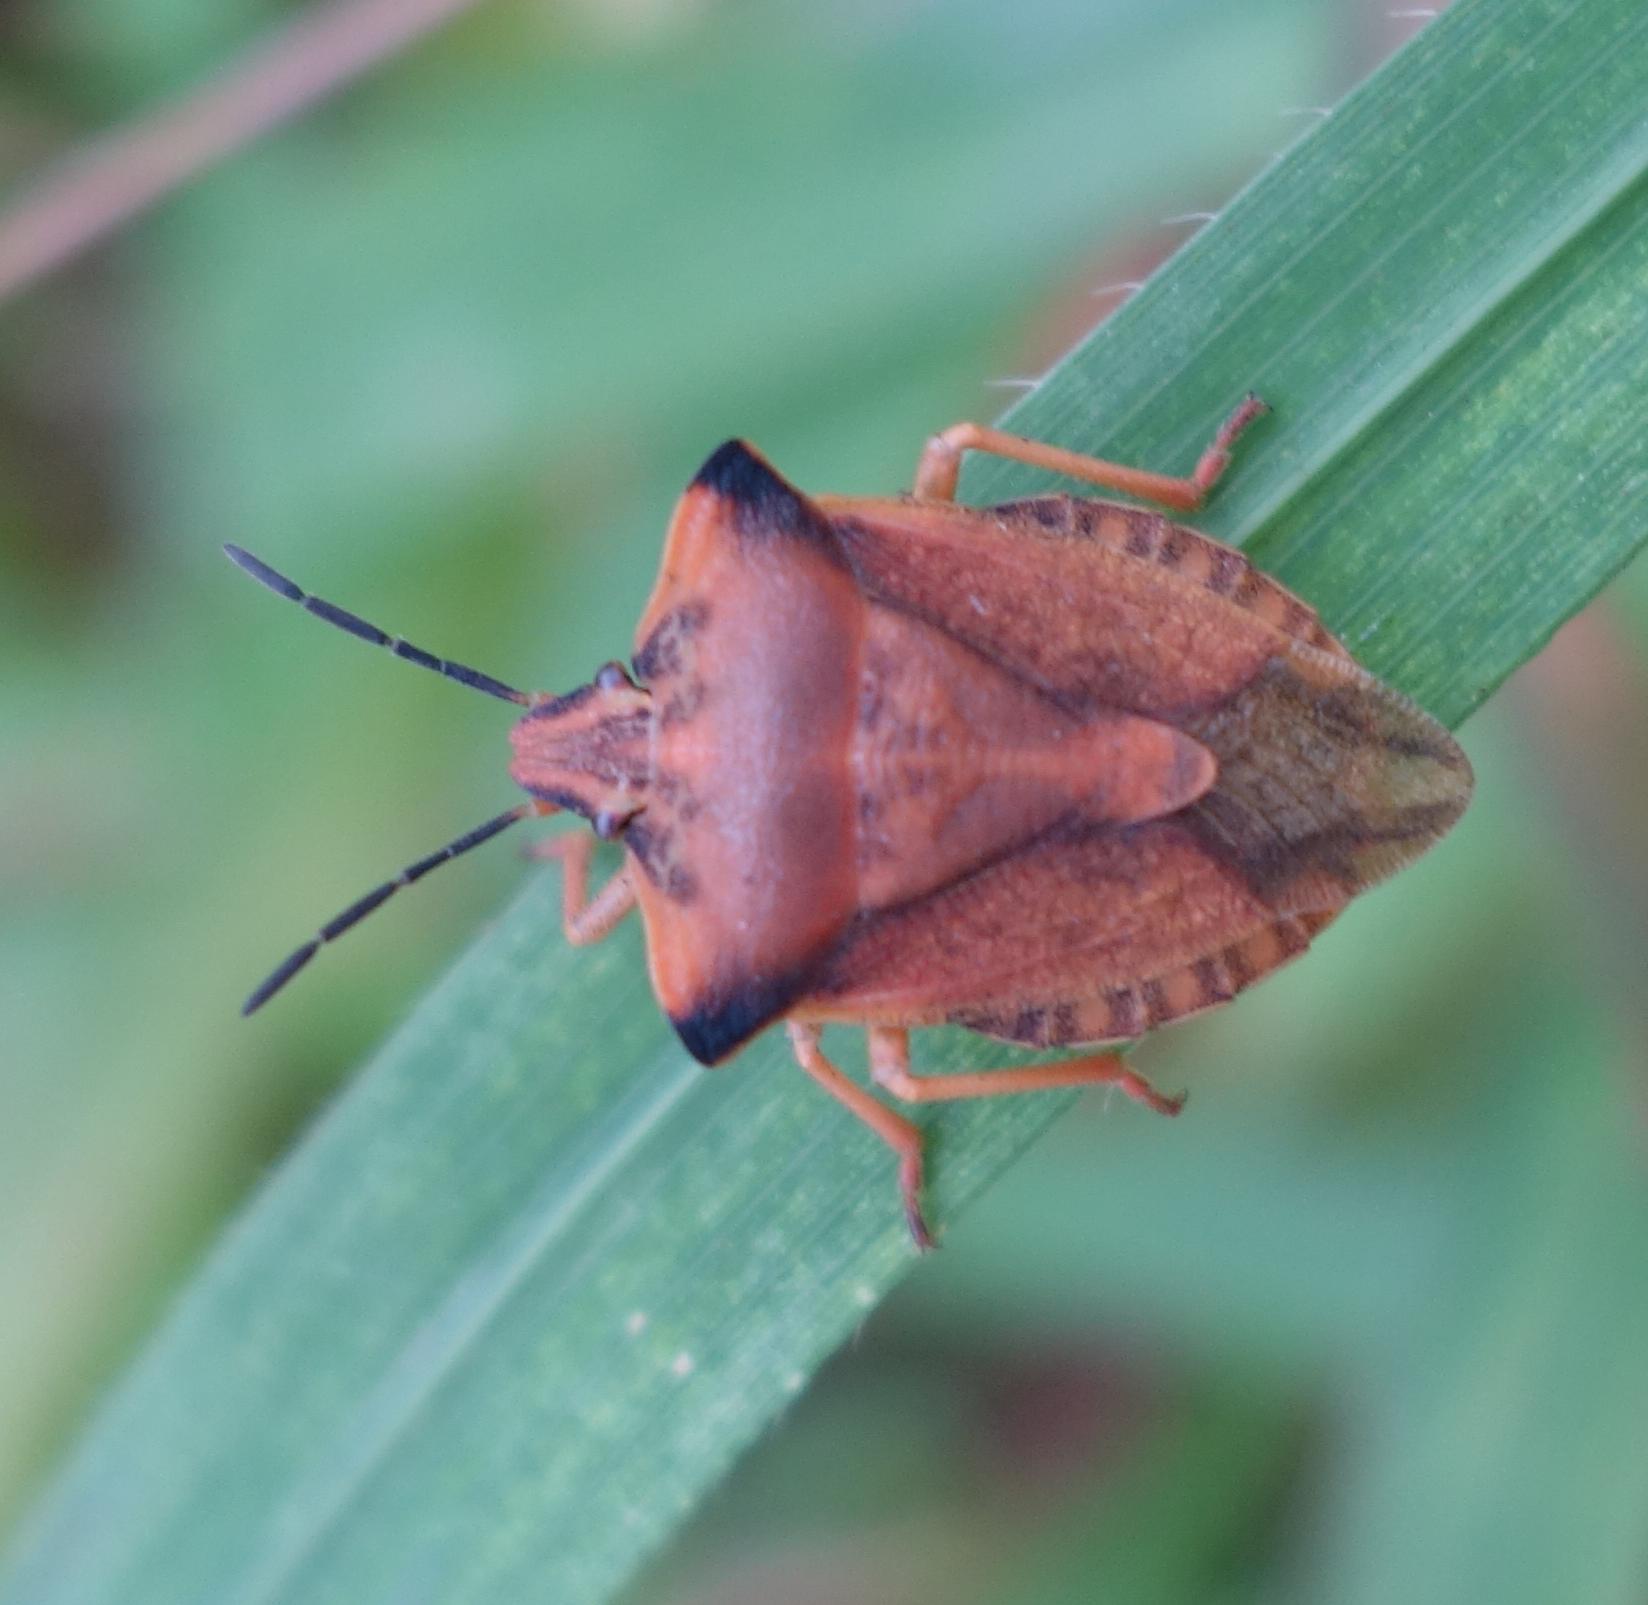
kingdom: Animalia
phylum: Arthropoda
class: Insecta
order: Hemiptera
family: Pentatomidae
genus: Carpocoris
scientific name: Carpocoris fuscispinus
